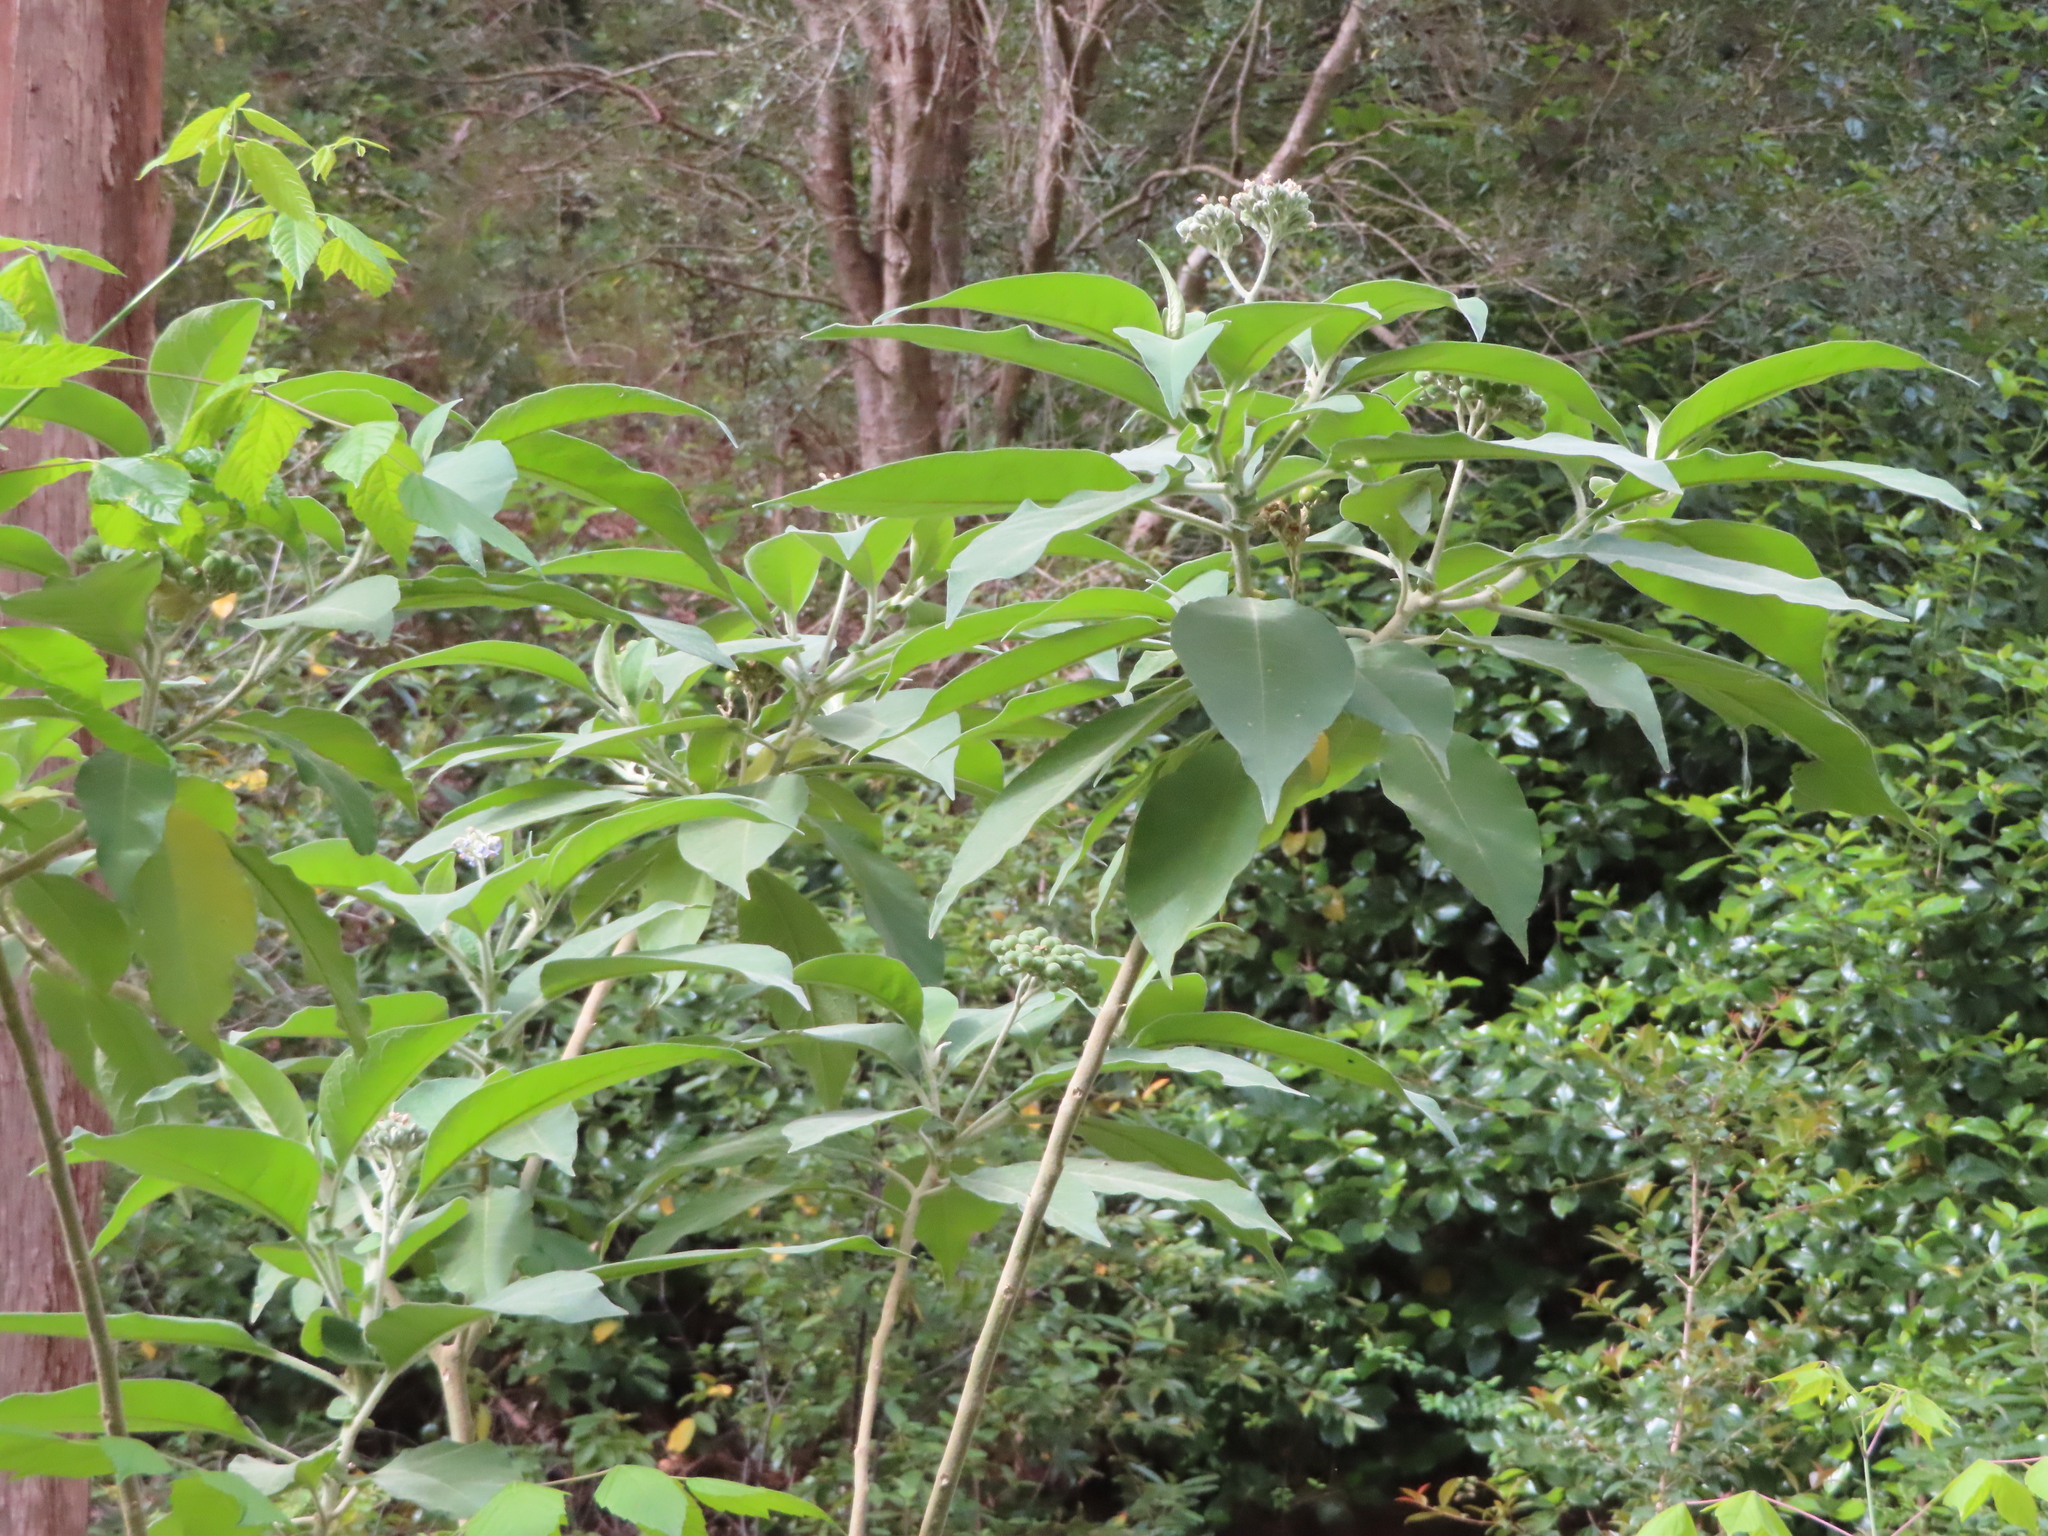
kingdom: Plantae
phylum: Tracheophyta
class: Magnoliopsida
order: Solanales
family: Solanaceae
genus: Solanum
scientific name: Solanum mauritianum
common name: Earleaf nightshade
